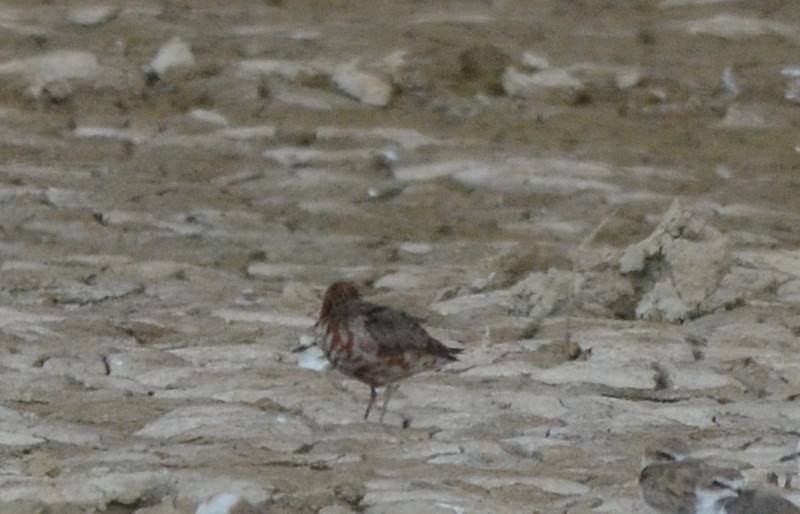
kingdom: Animalia
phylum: Chordata
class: Aves
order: Charadriiformes
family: Scolopacidae
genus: Calidris
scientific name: Calidris ferruginea
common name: Curlew sandpiper
